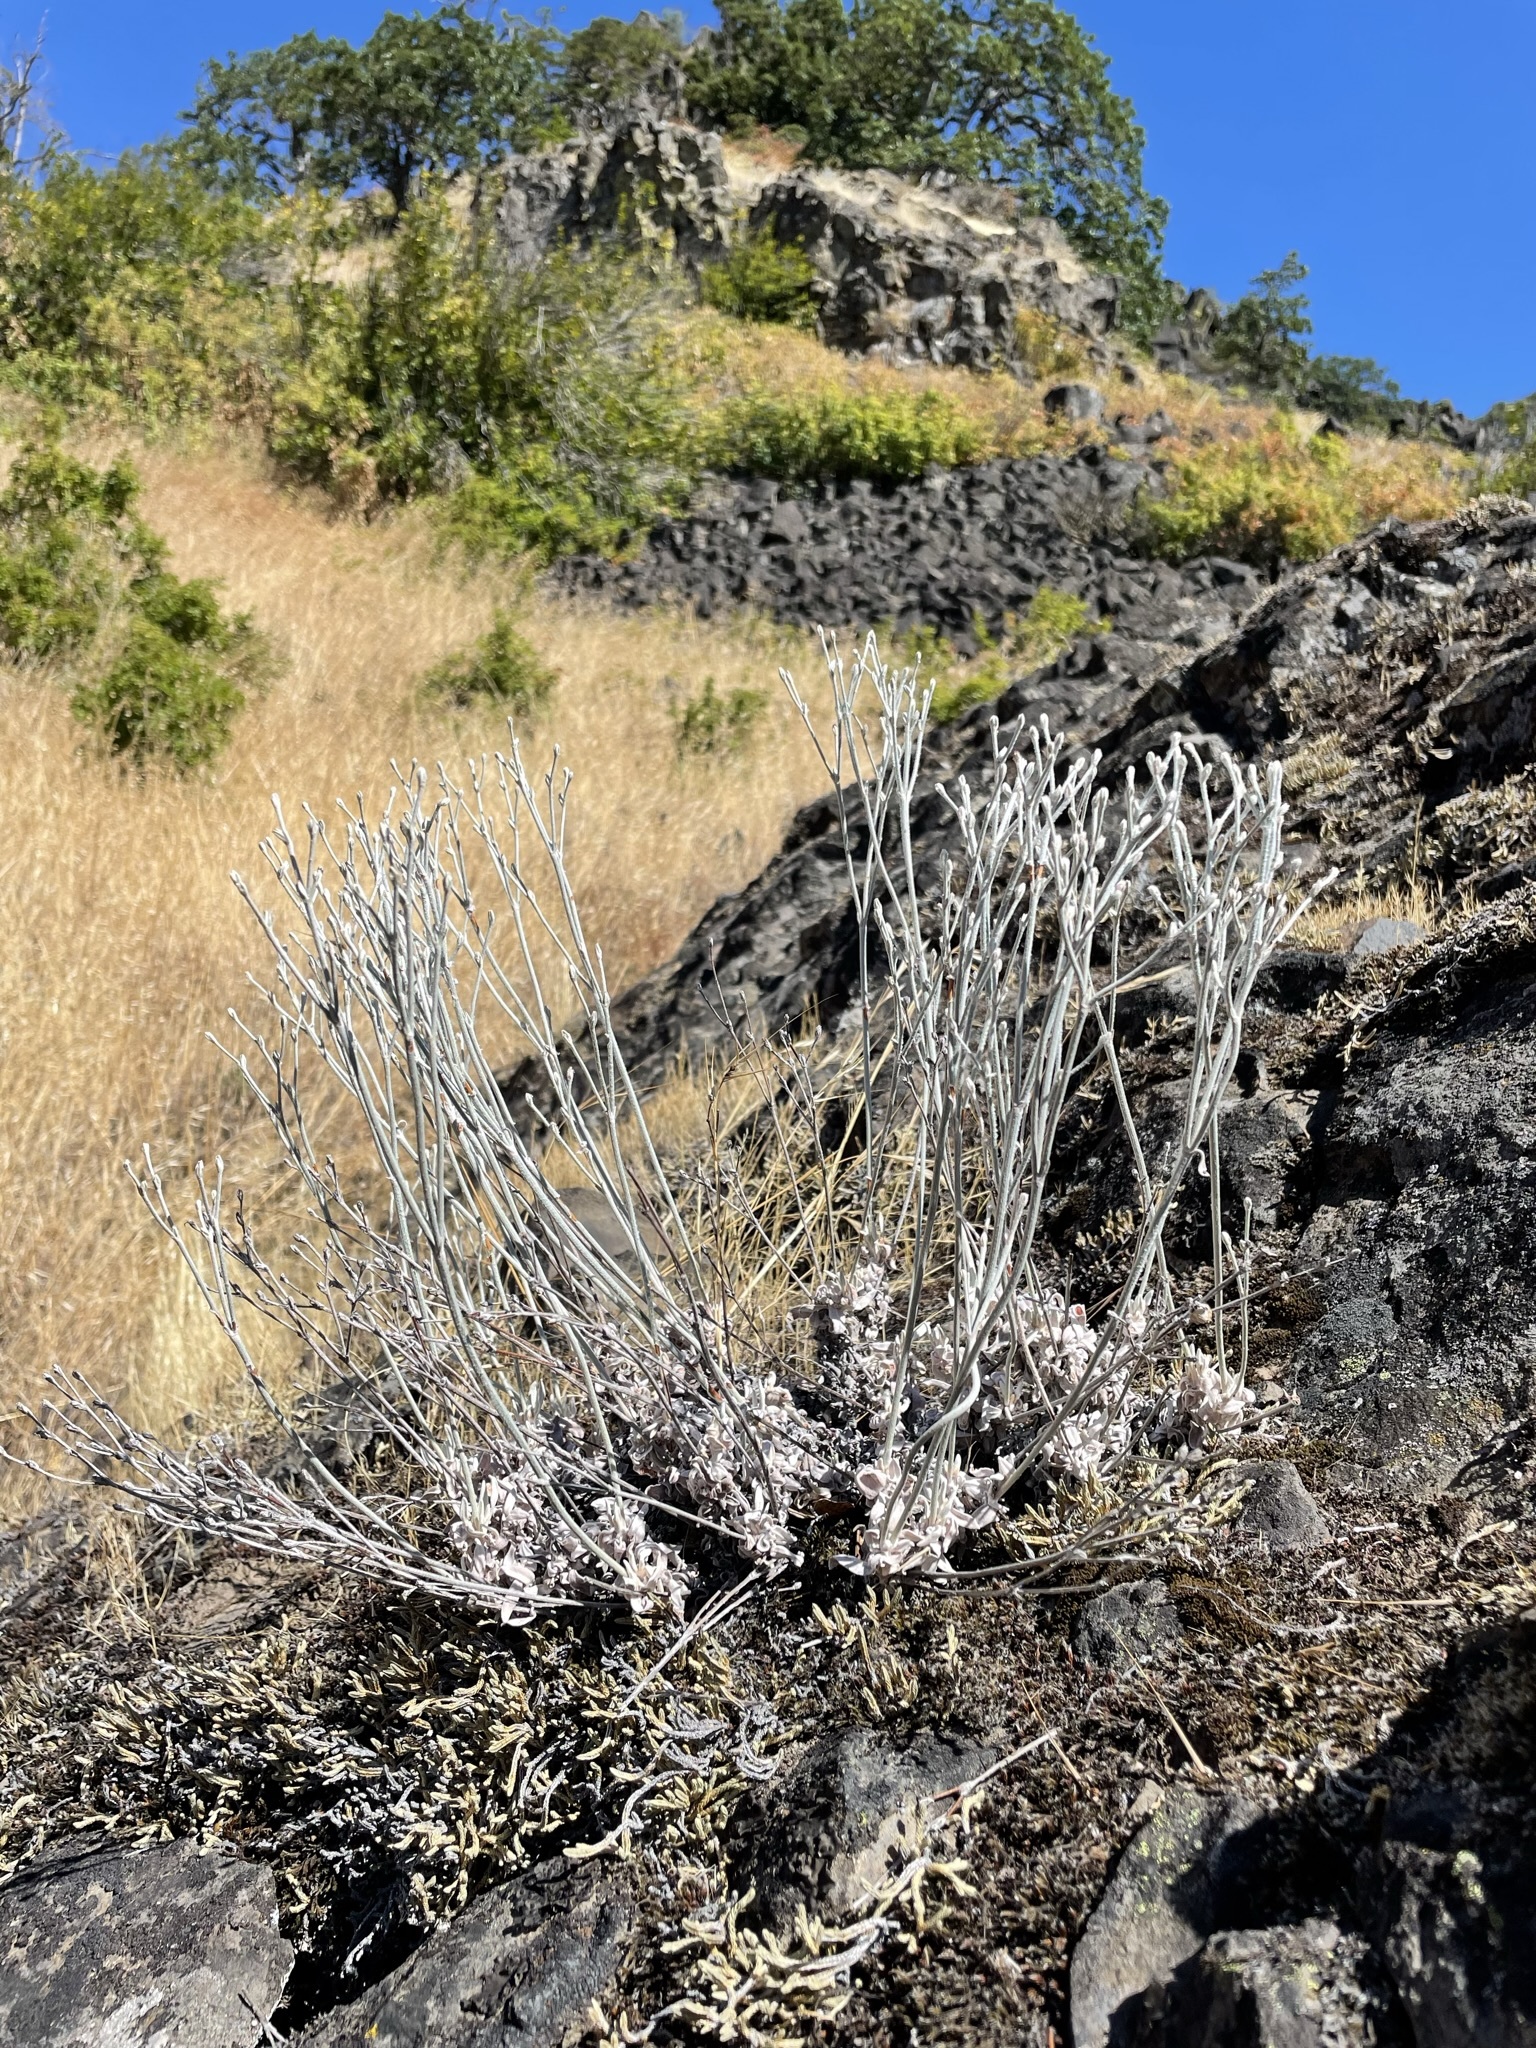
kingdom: Plantae
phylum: Tracheophyta
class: Magnoliopsida
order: Caryophyllales
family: Polygonaceae
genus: Eriogonum
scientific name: Eriogonum niveum
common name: Snow wild buckwheat
